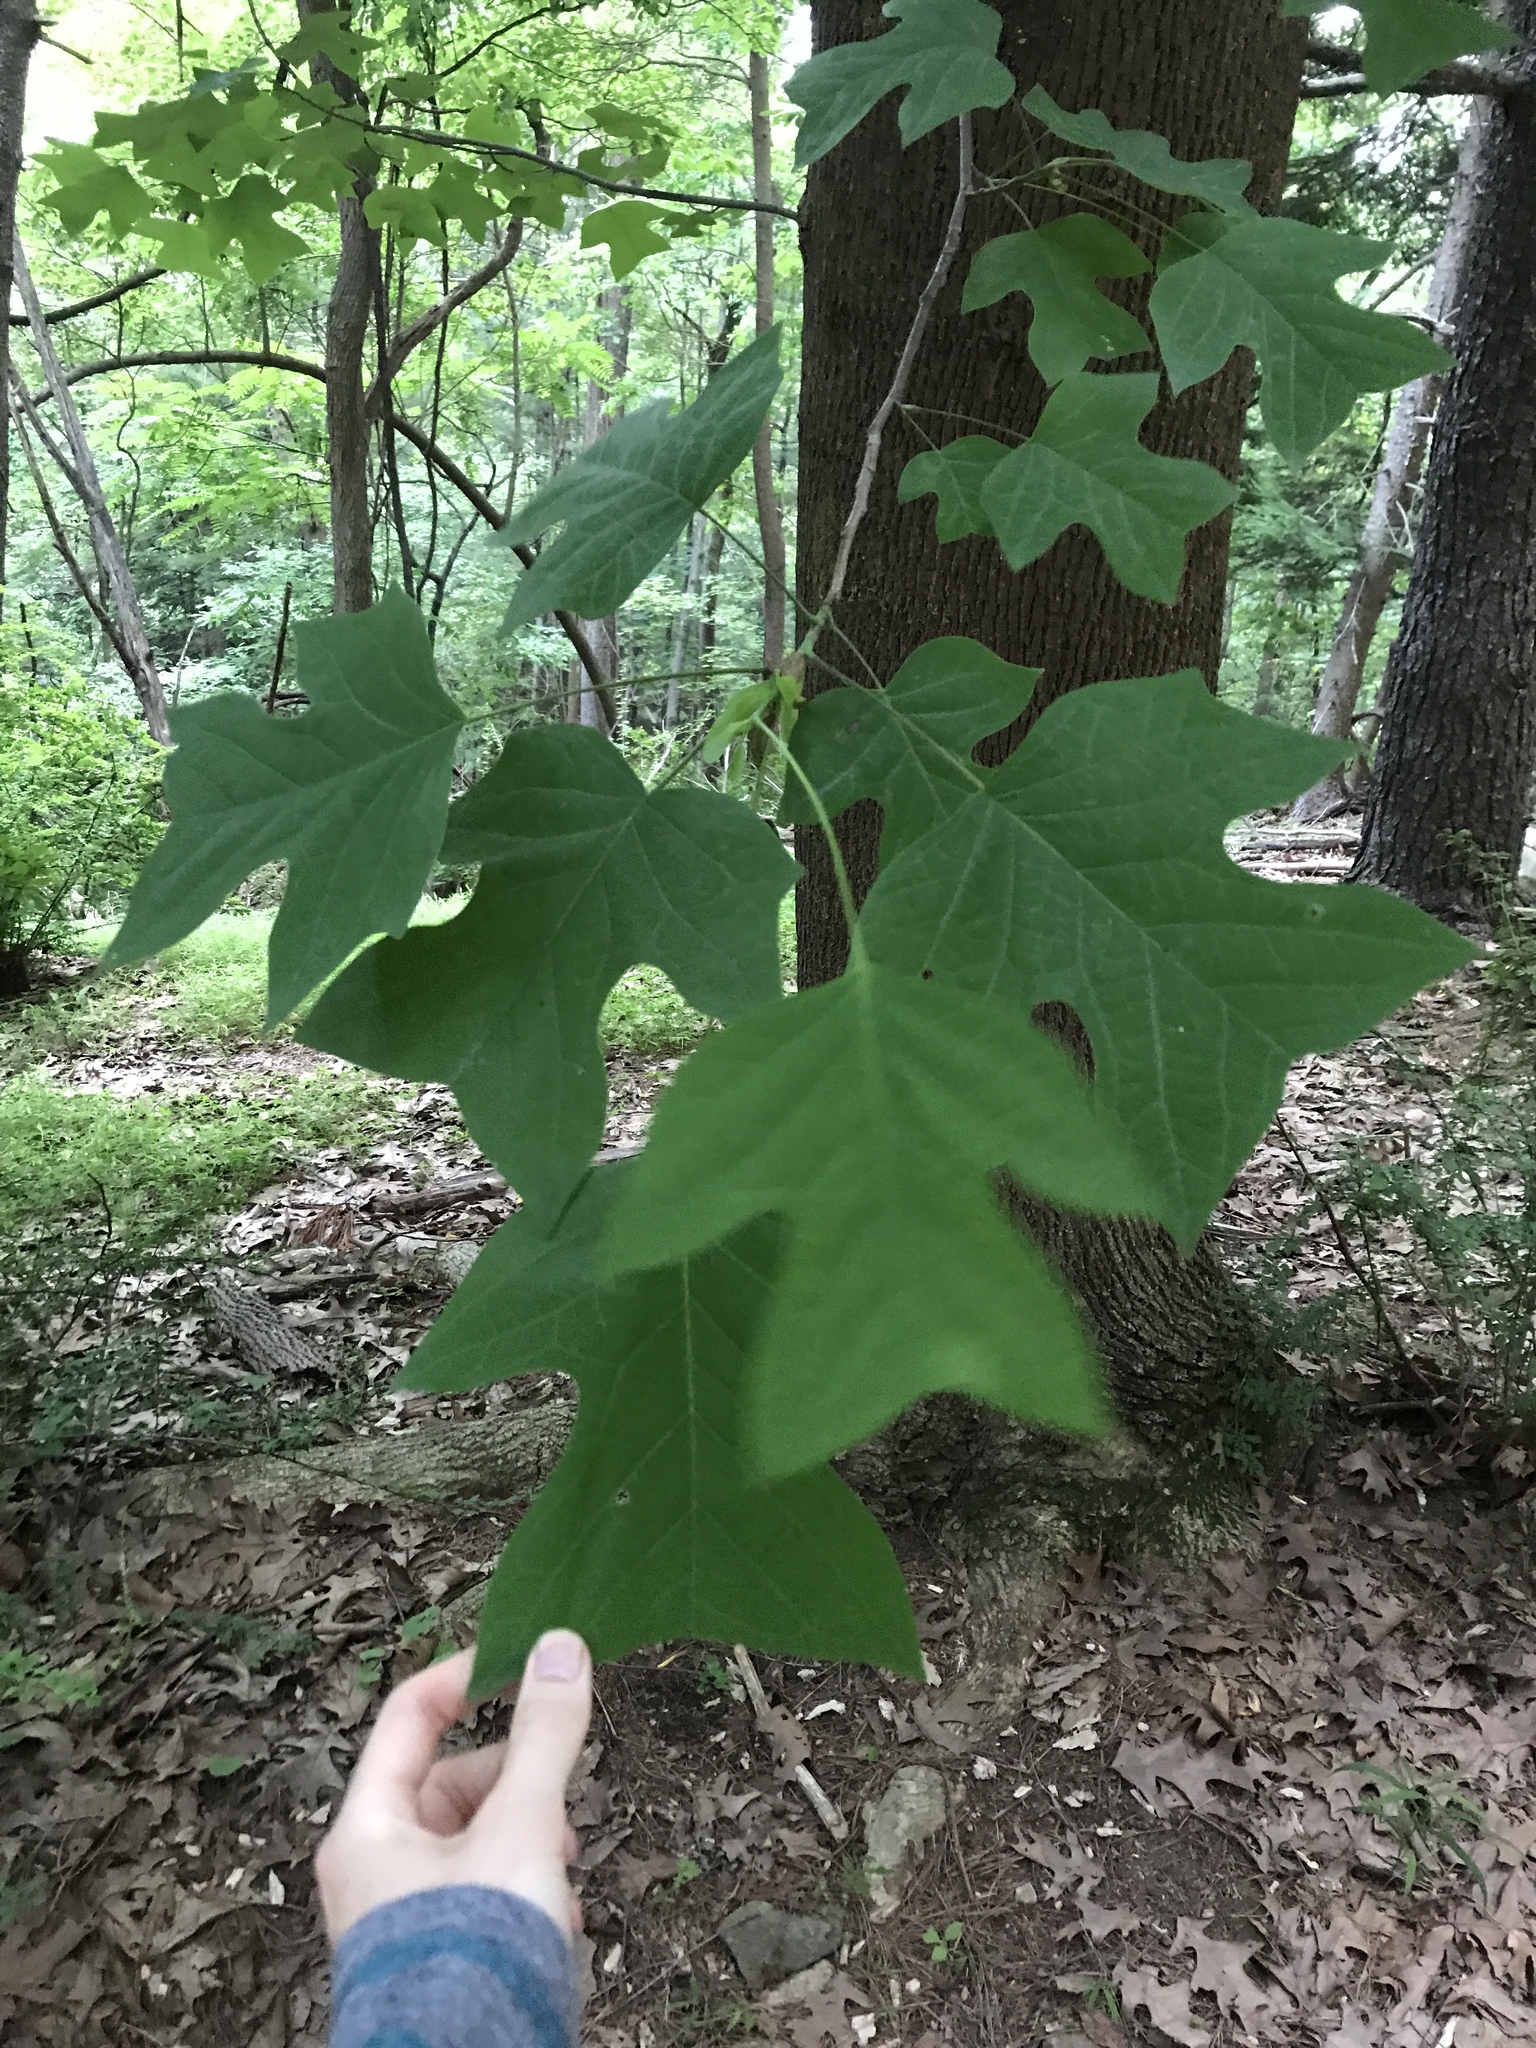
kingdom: Plantae
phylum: Tracheophyta
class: Magnoliopsida
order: Magnoliales
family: Magnoliaceae
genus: Liriodendron
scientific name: Liriodendron tulipifera
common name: Tulip tree
